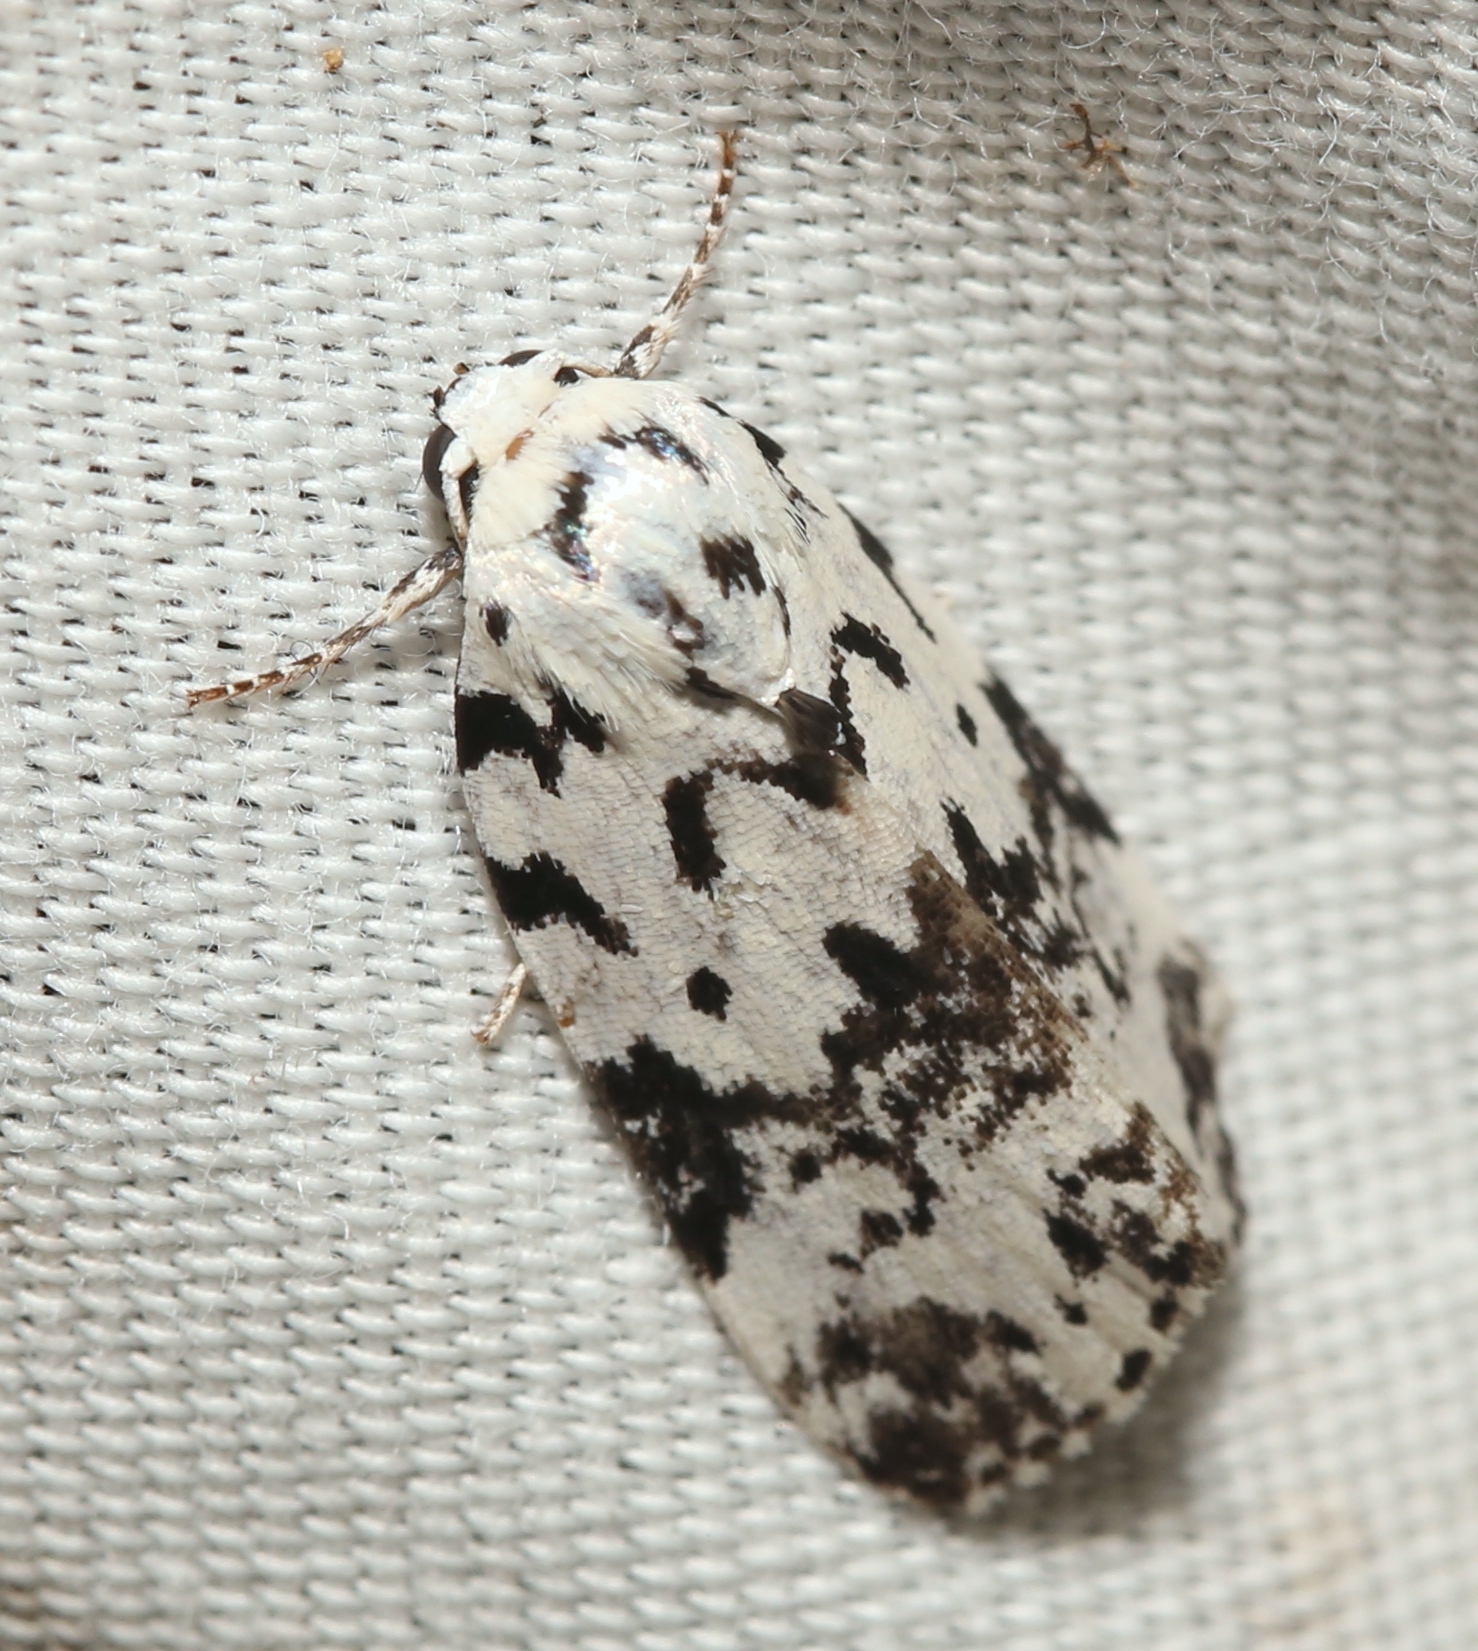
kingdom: Animalia
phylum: Arthropoda
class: Insecta
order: Lepidoptera
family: Noctuidae
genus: Polygrammate
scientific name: Polygrammate hebraeicum
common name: Hebrew moth
